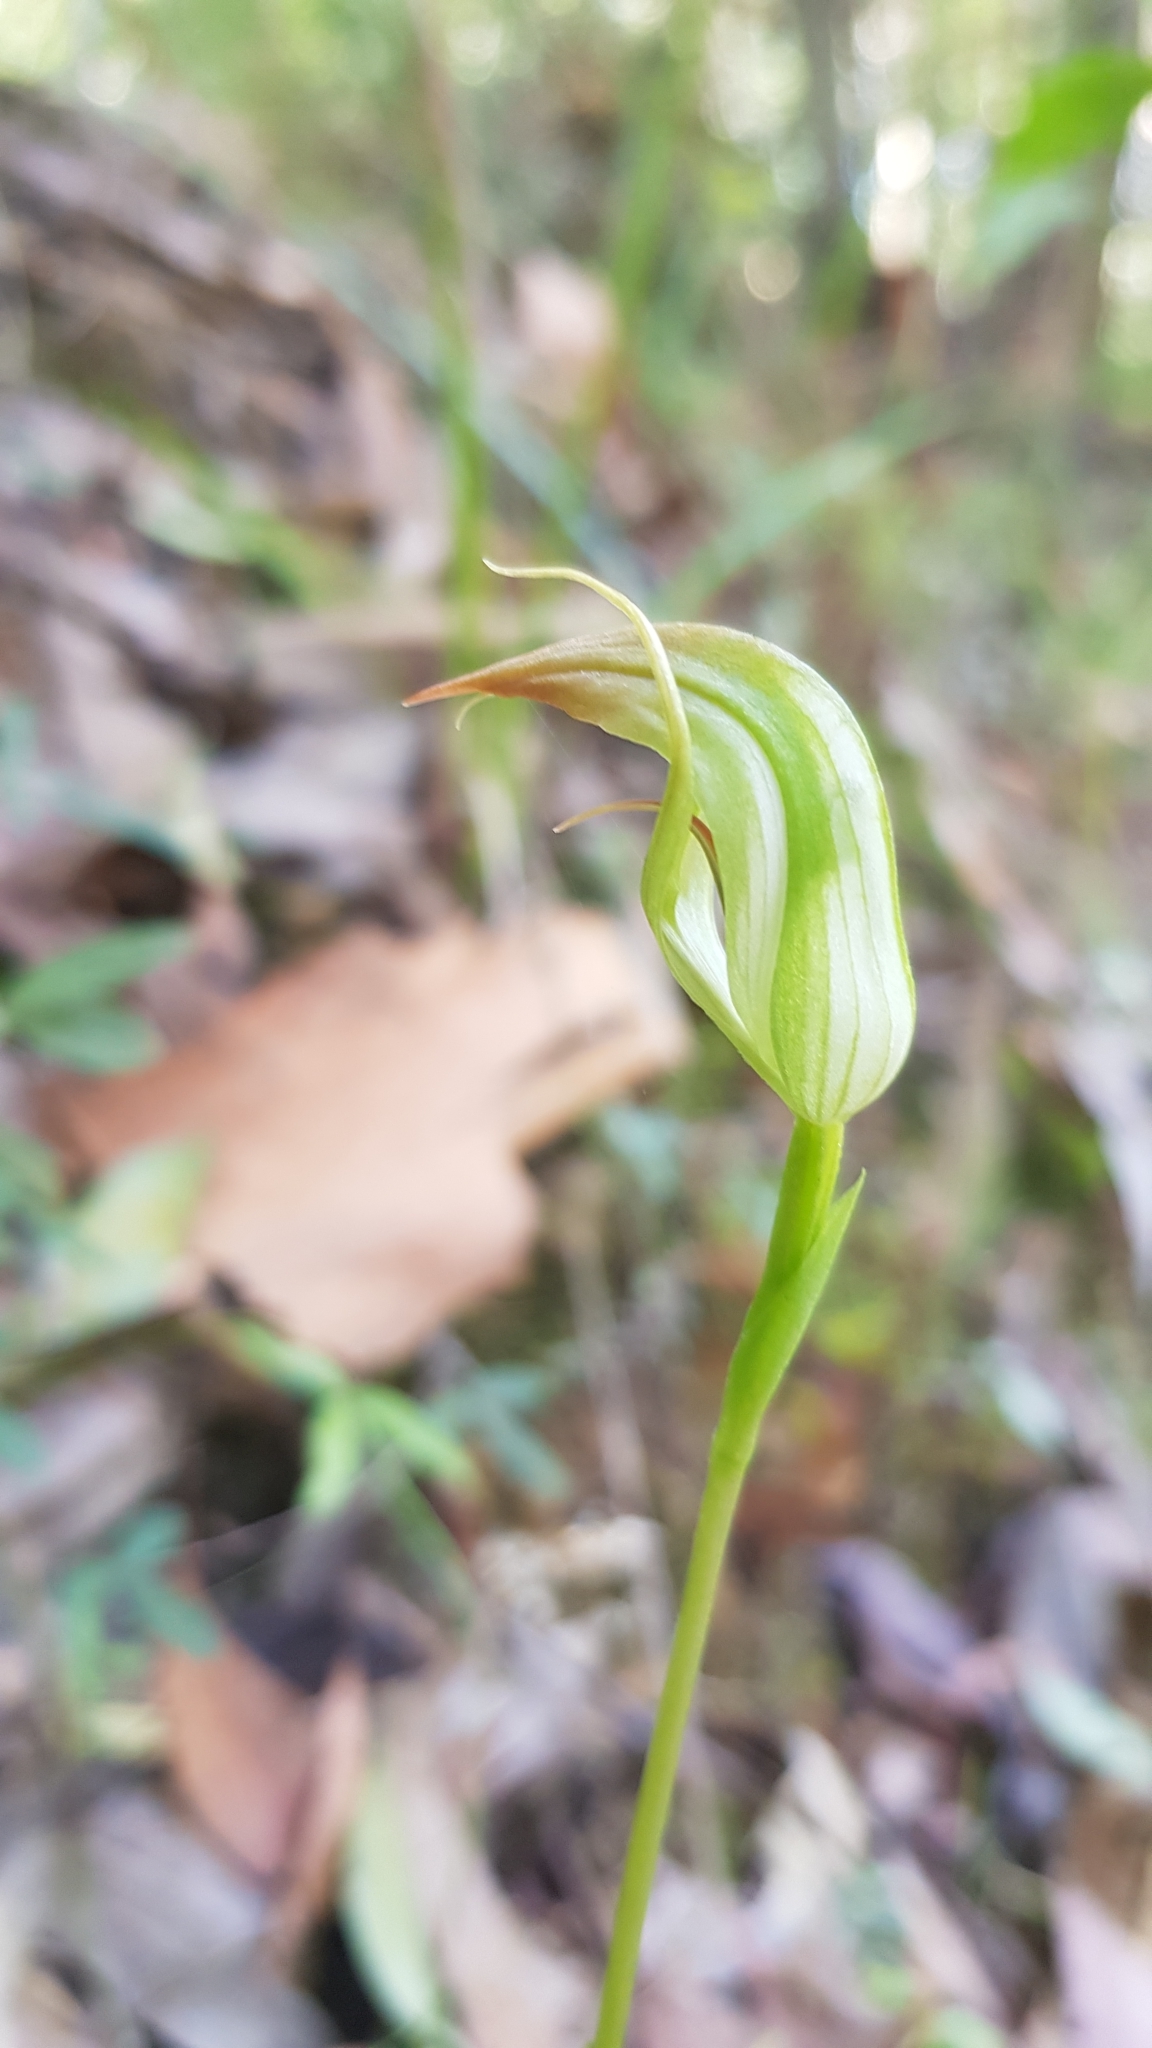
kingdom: Plantae
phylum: Tracheophyta
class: Liliopsida
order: Asparagales
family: Orchidaceae
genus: Pterostylis
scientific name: Pterostylis acuminata
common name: Pointed greenhood
